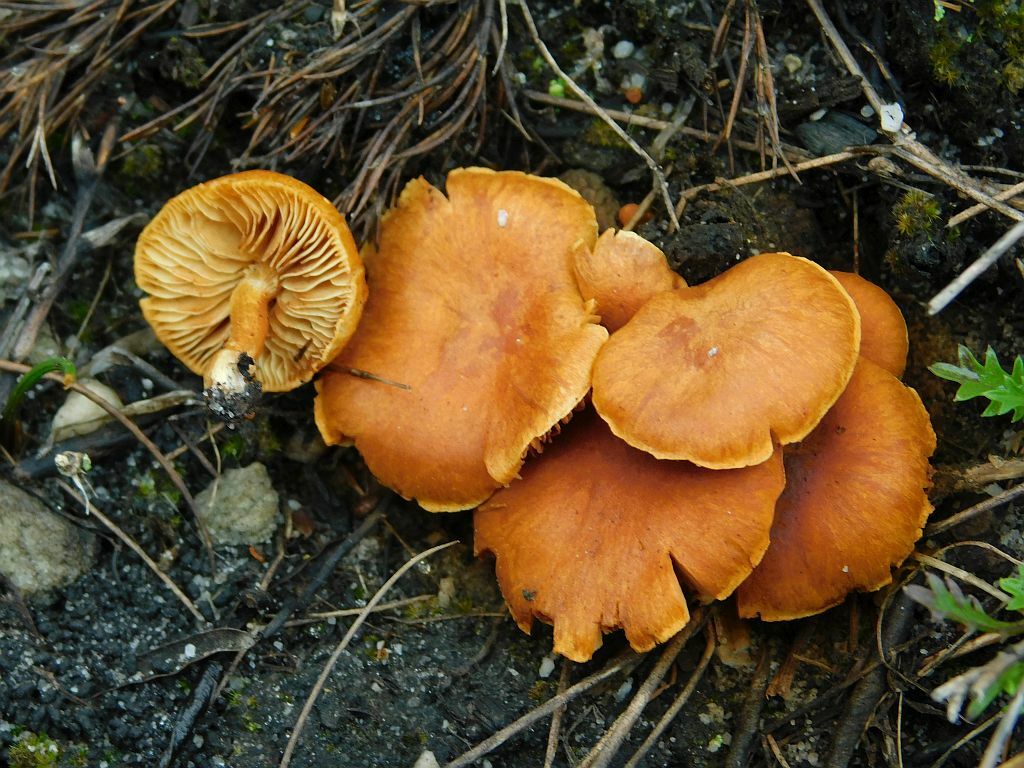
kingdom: Fungi
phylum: Basidiomycota
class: Agaricomycetes
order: Agaricales
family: Hymenogastraceae
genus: Gymnopilus
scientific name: Gymnopilus junonius
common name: Spectacular rustgill
